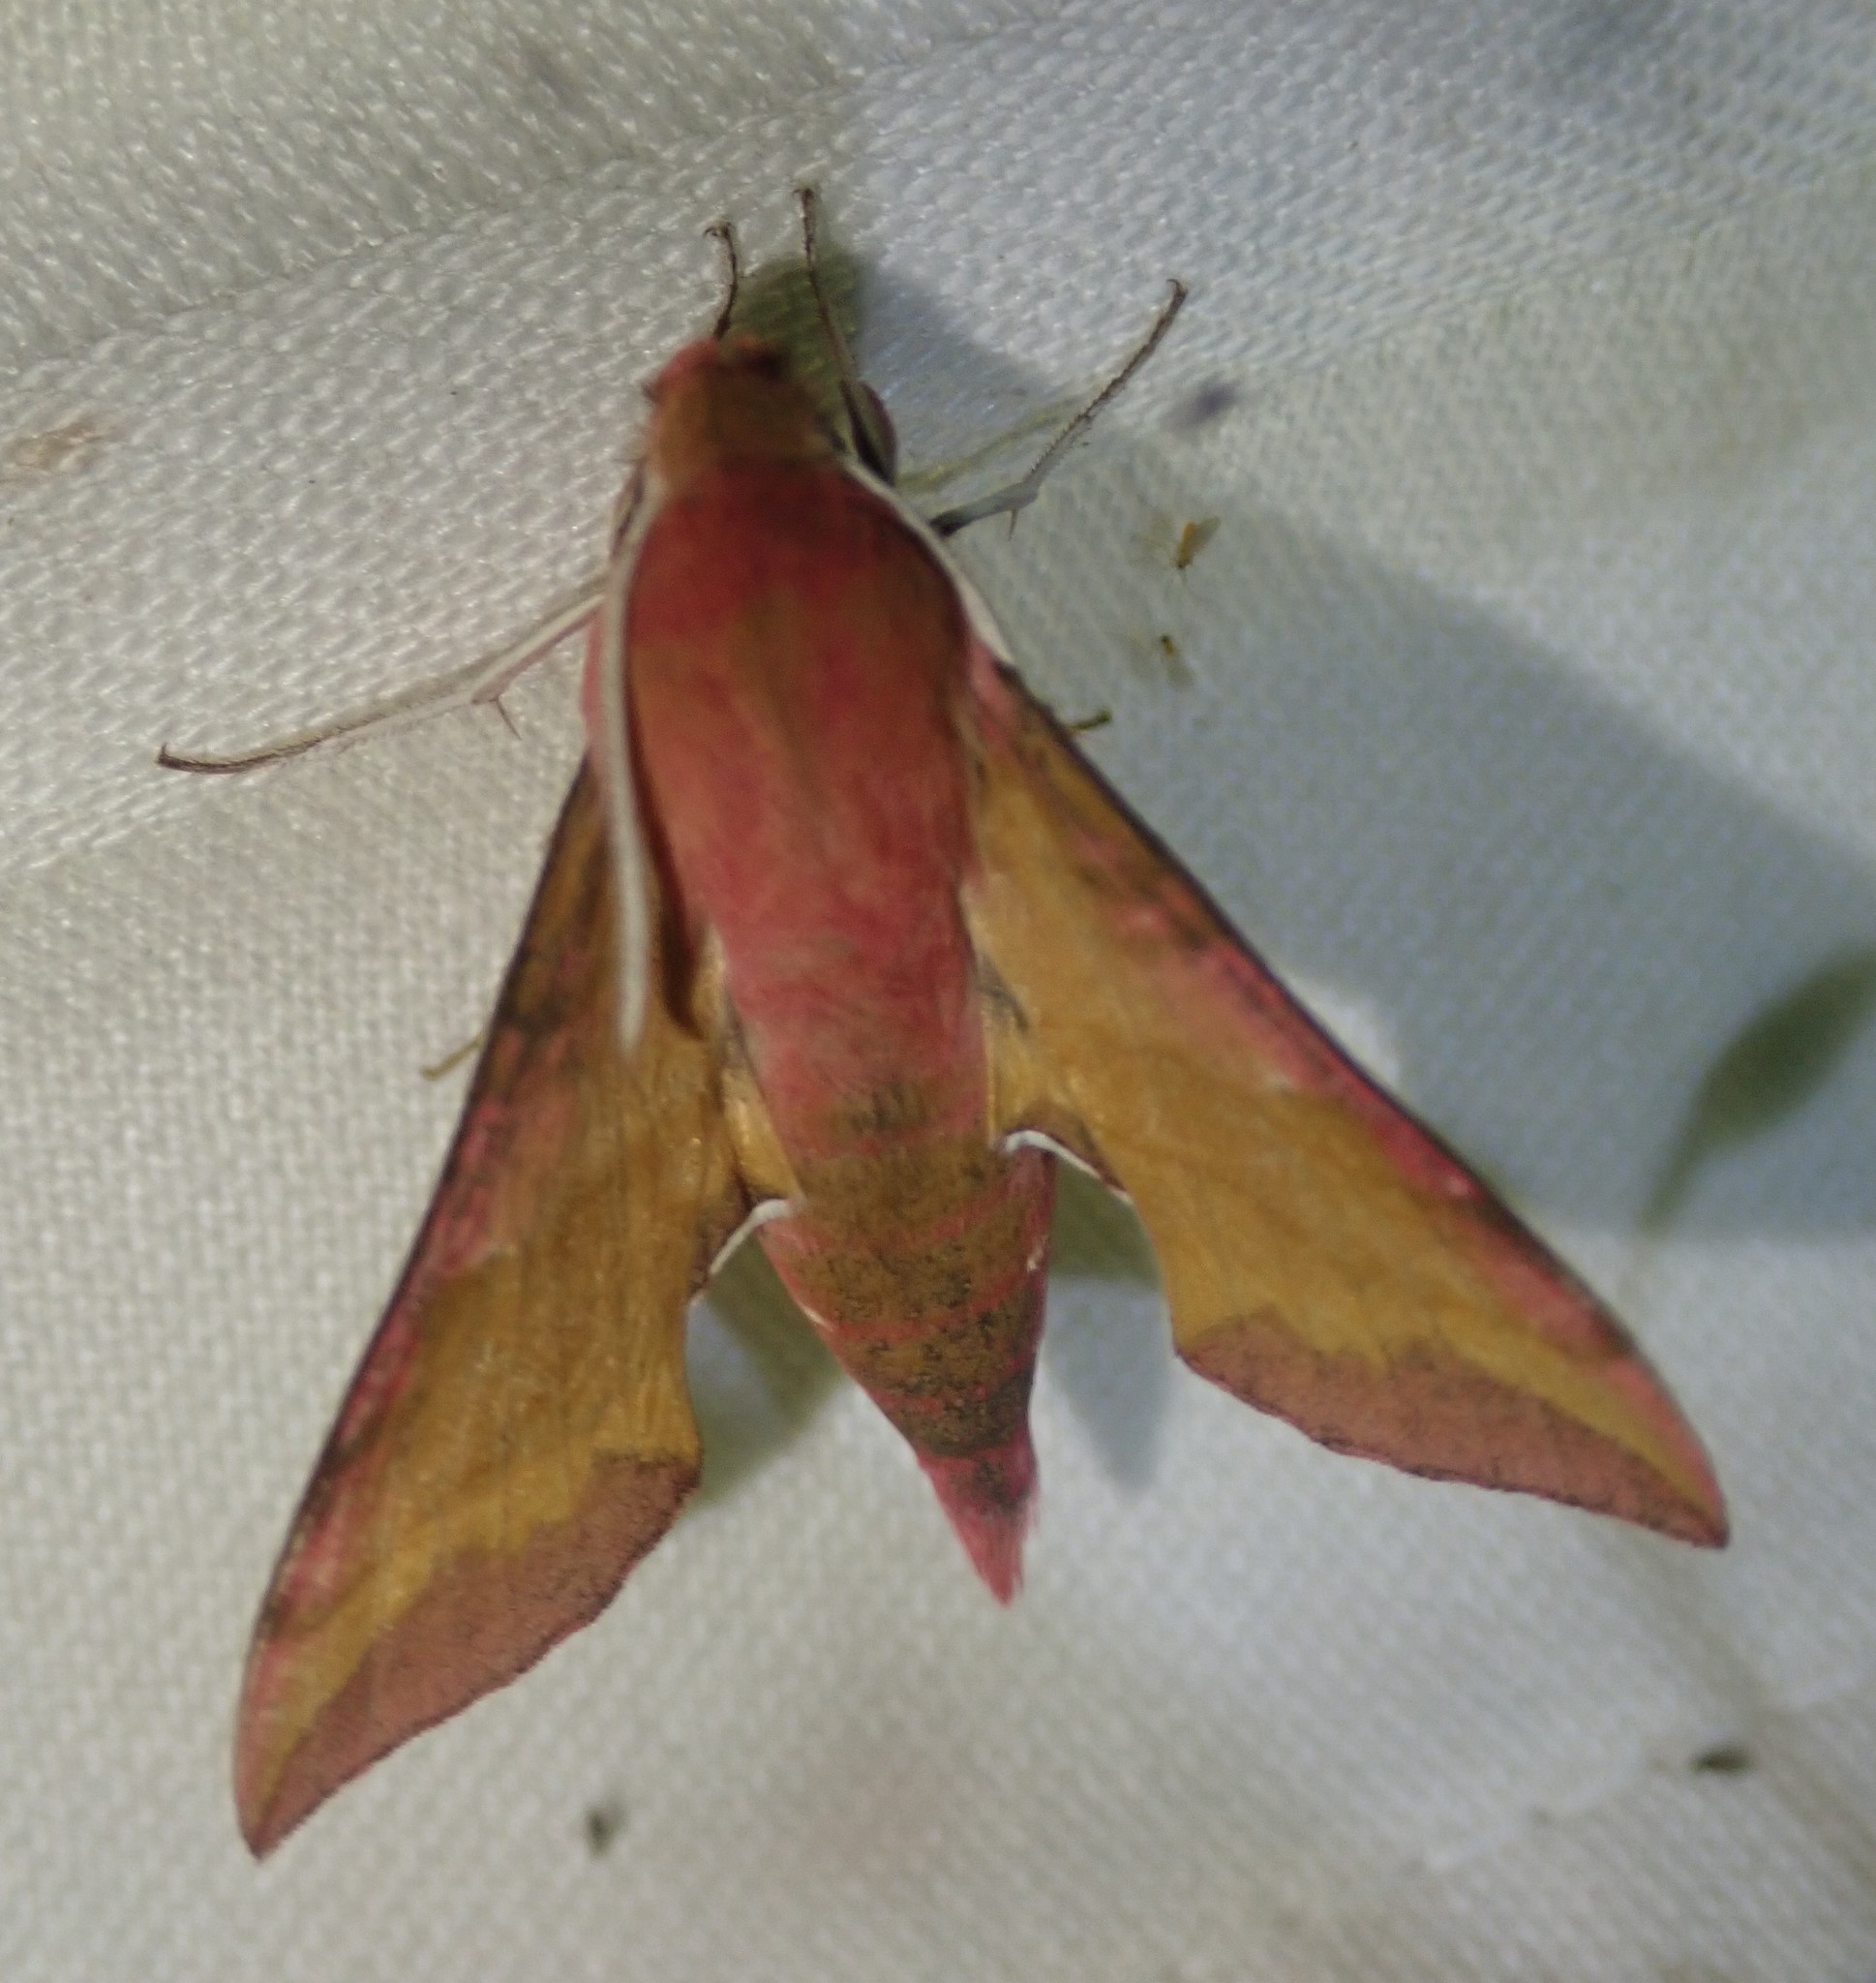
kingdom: Animalia
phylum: Arthropoda
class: Insecta
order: Lepidoptera
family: Sphingidae
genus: Deilephila
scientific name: Deilephila porcellus
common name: Small elephant hawk-moth
